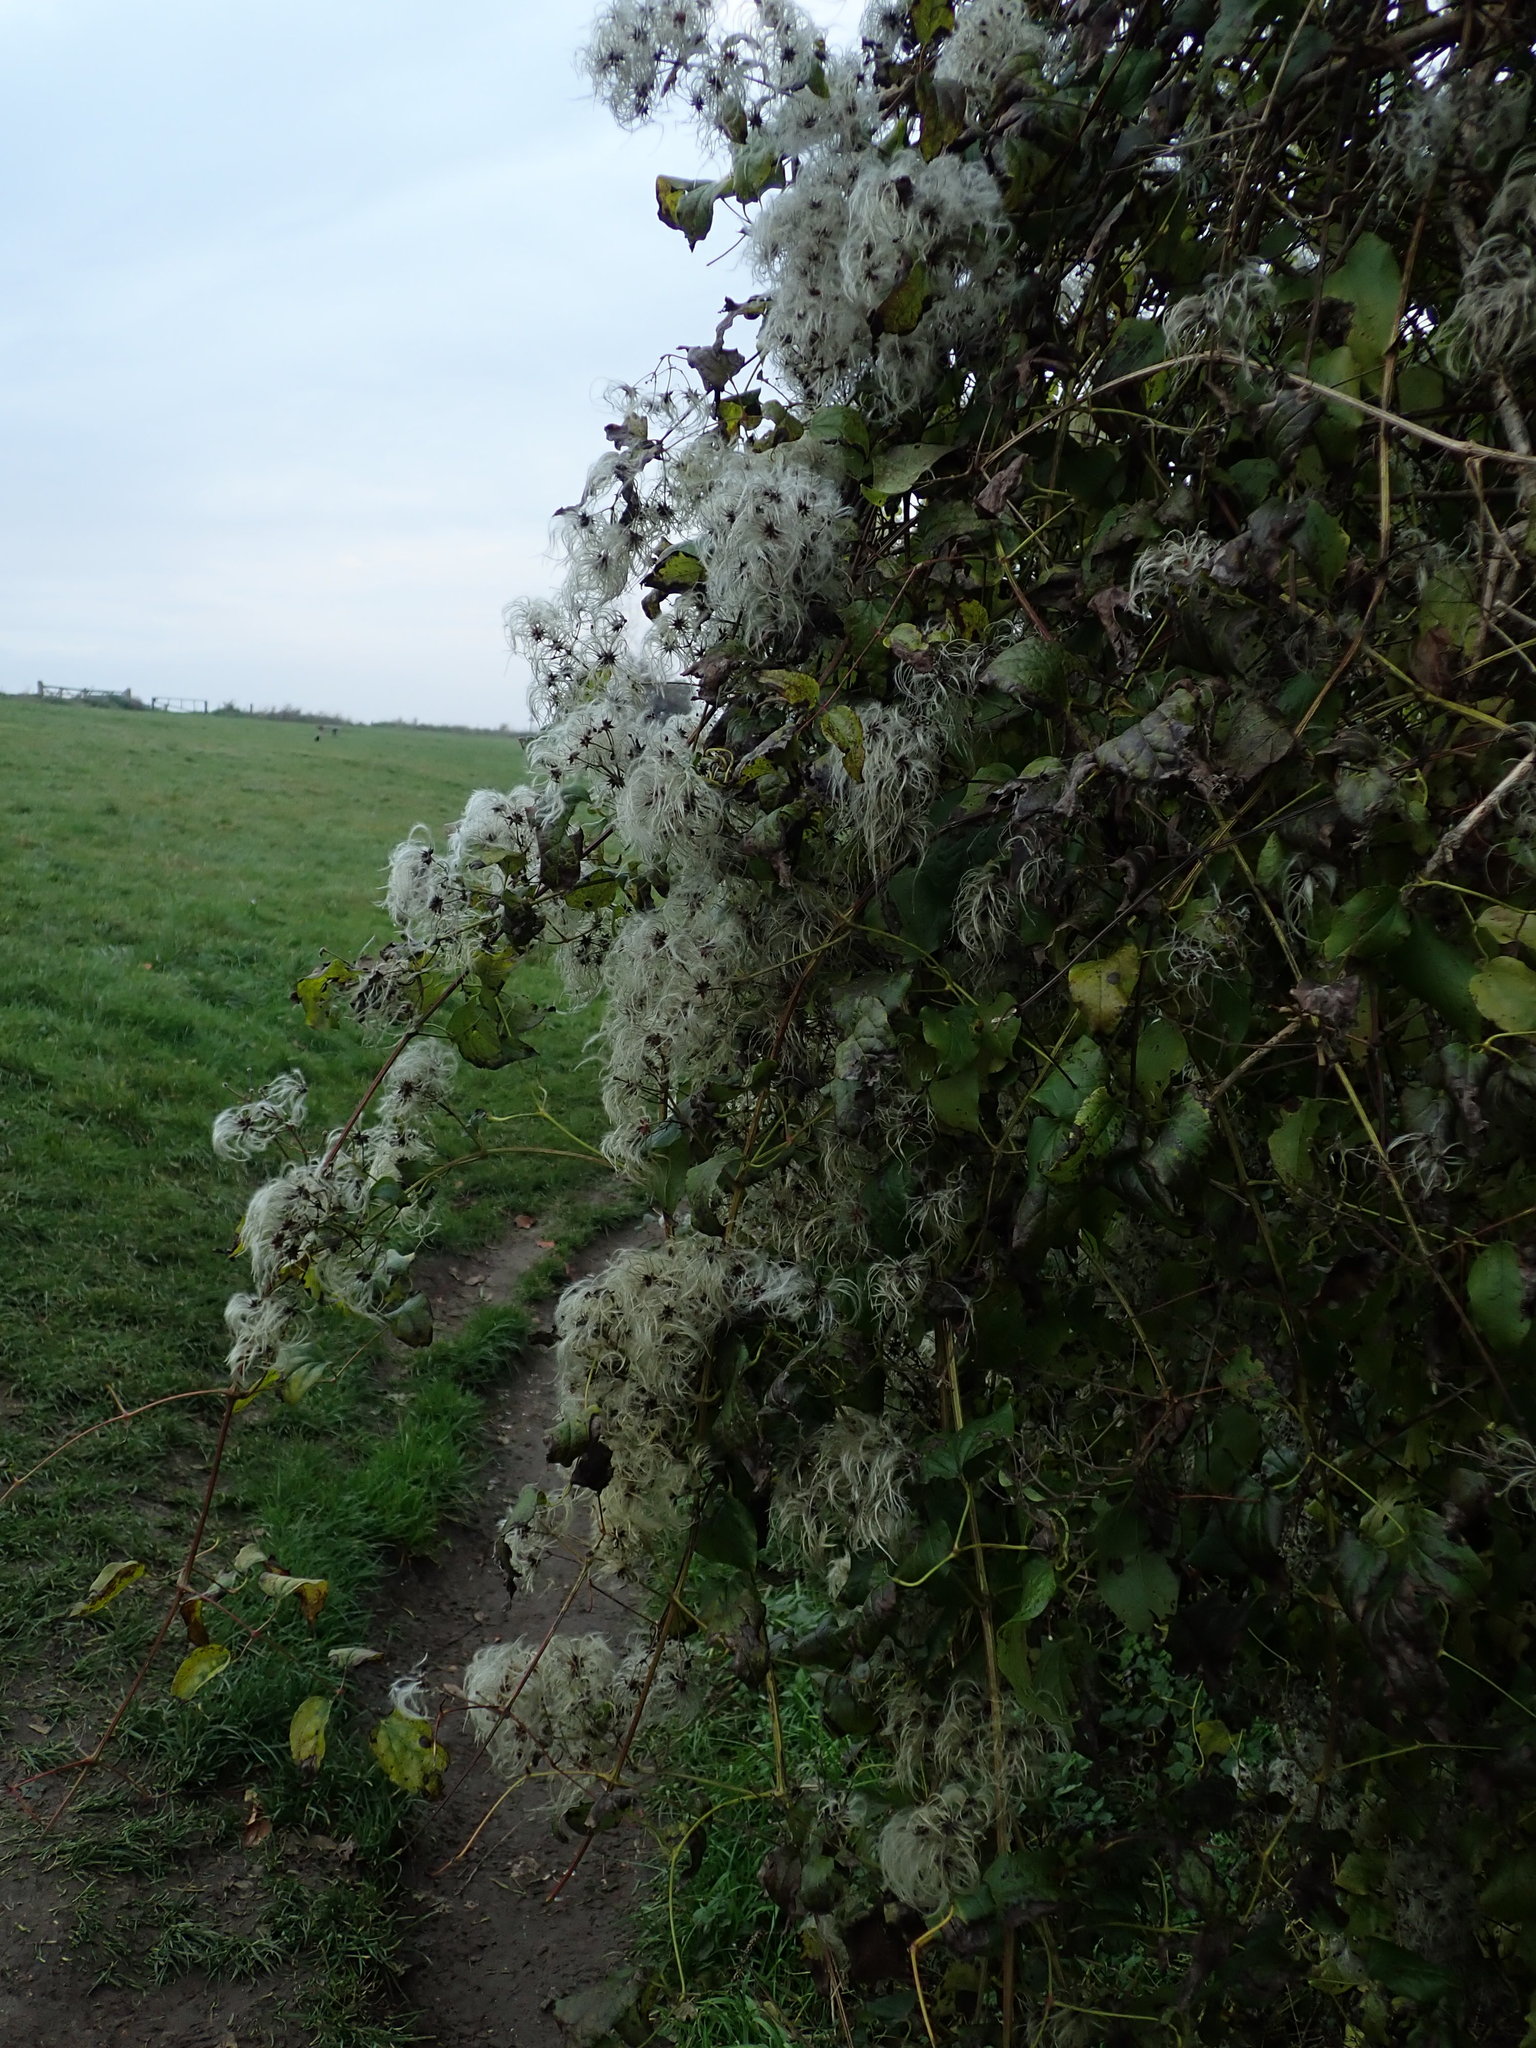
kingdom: Plantae
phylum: Tracheophyta
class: Magnoliopsida
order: Ranunculales
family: Ranunculaceae
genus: Clematis
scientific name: Clematis vitalba
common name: Evergreen clematis
